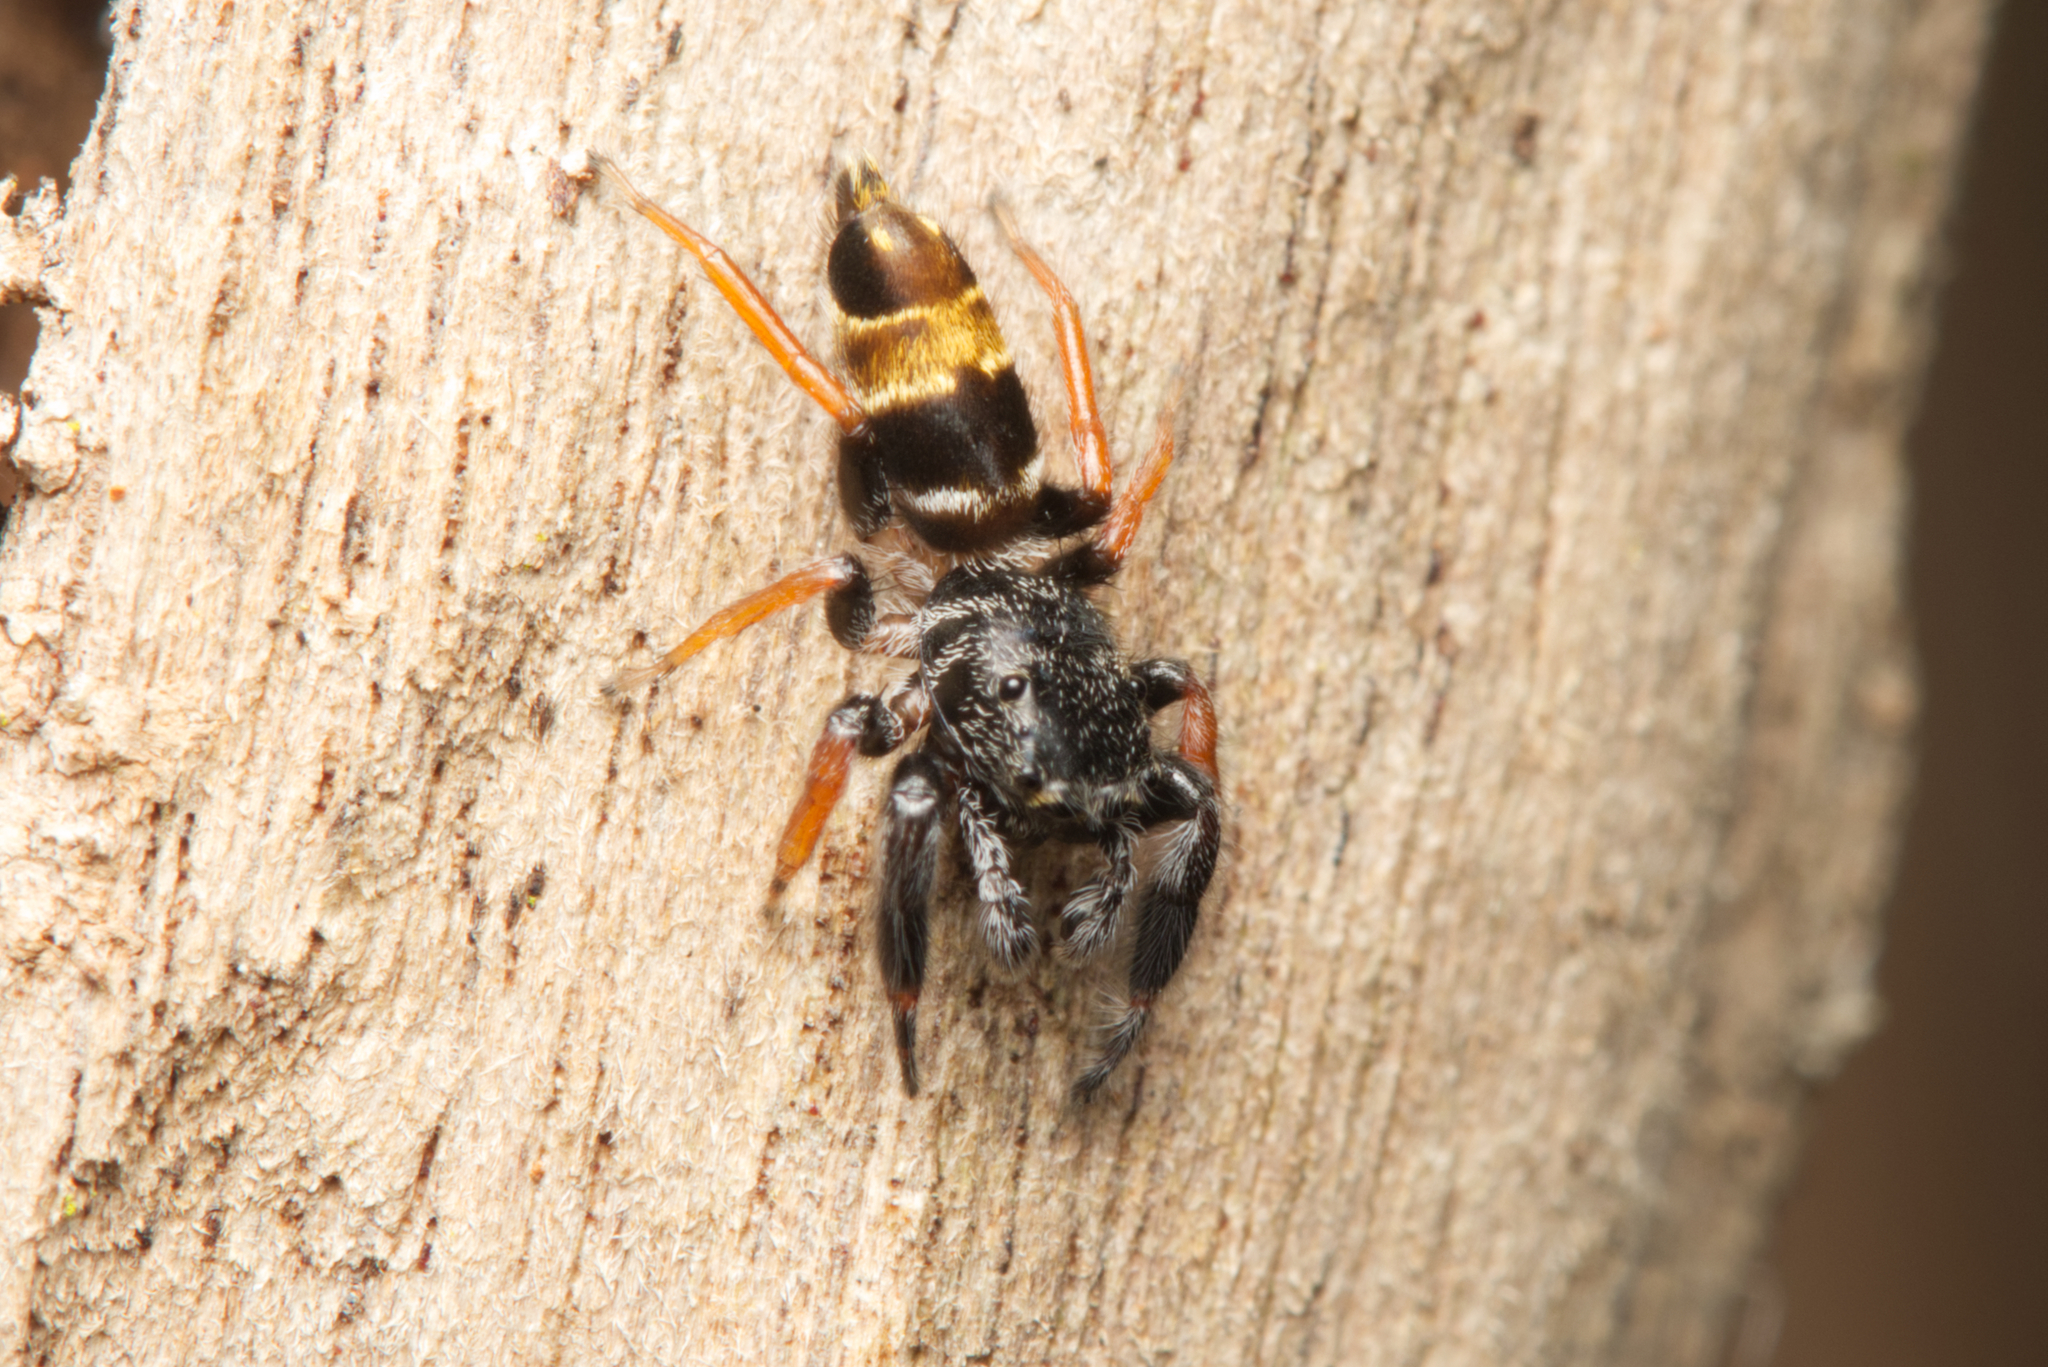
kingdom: Animalia
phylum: Arthropoda
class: Arachnida
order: Araneae
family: Salticidae
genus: Apricia
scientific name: Apricia jovialis
